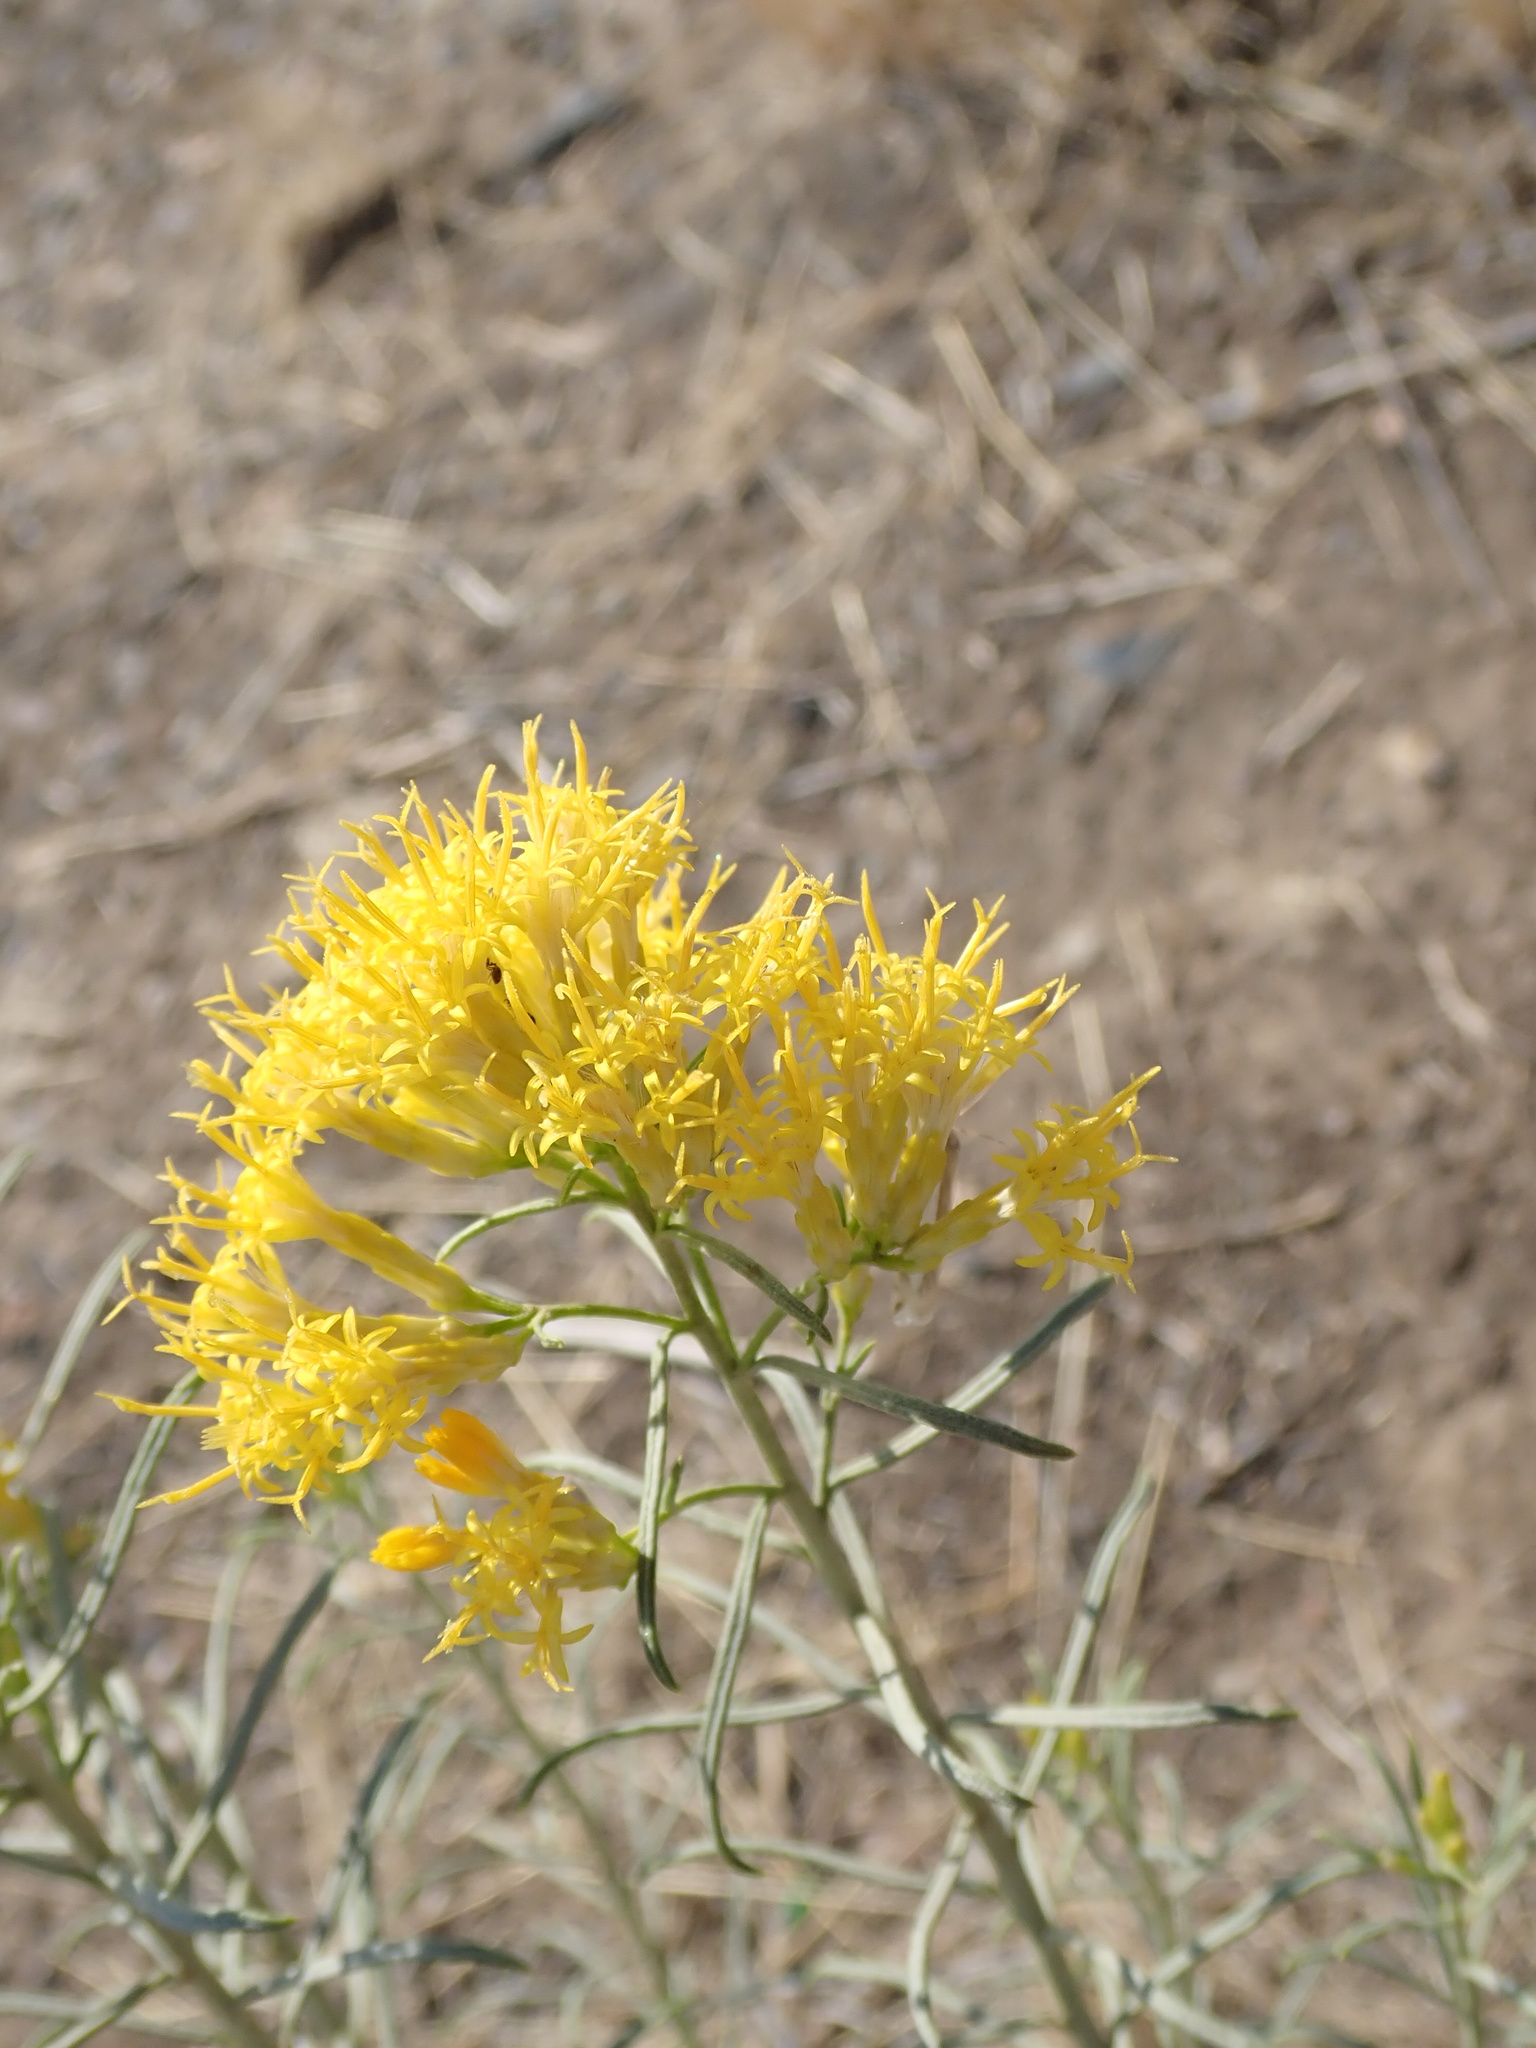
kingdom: Plantae
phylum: Tracheophyta
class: Magnoliopsida
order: Asterales
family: Asteraceae
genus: Ericameria
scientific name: Ericameria nauseosa
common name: Rubber rabbitbrush
